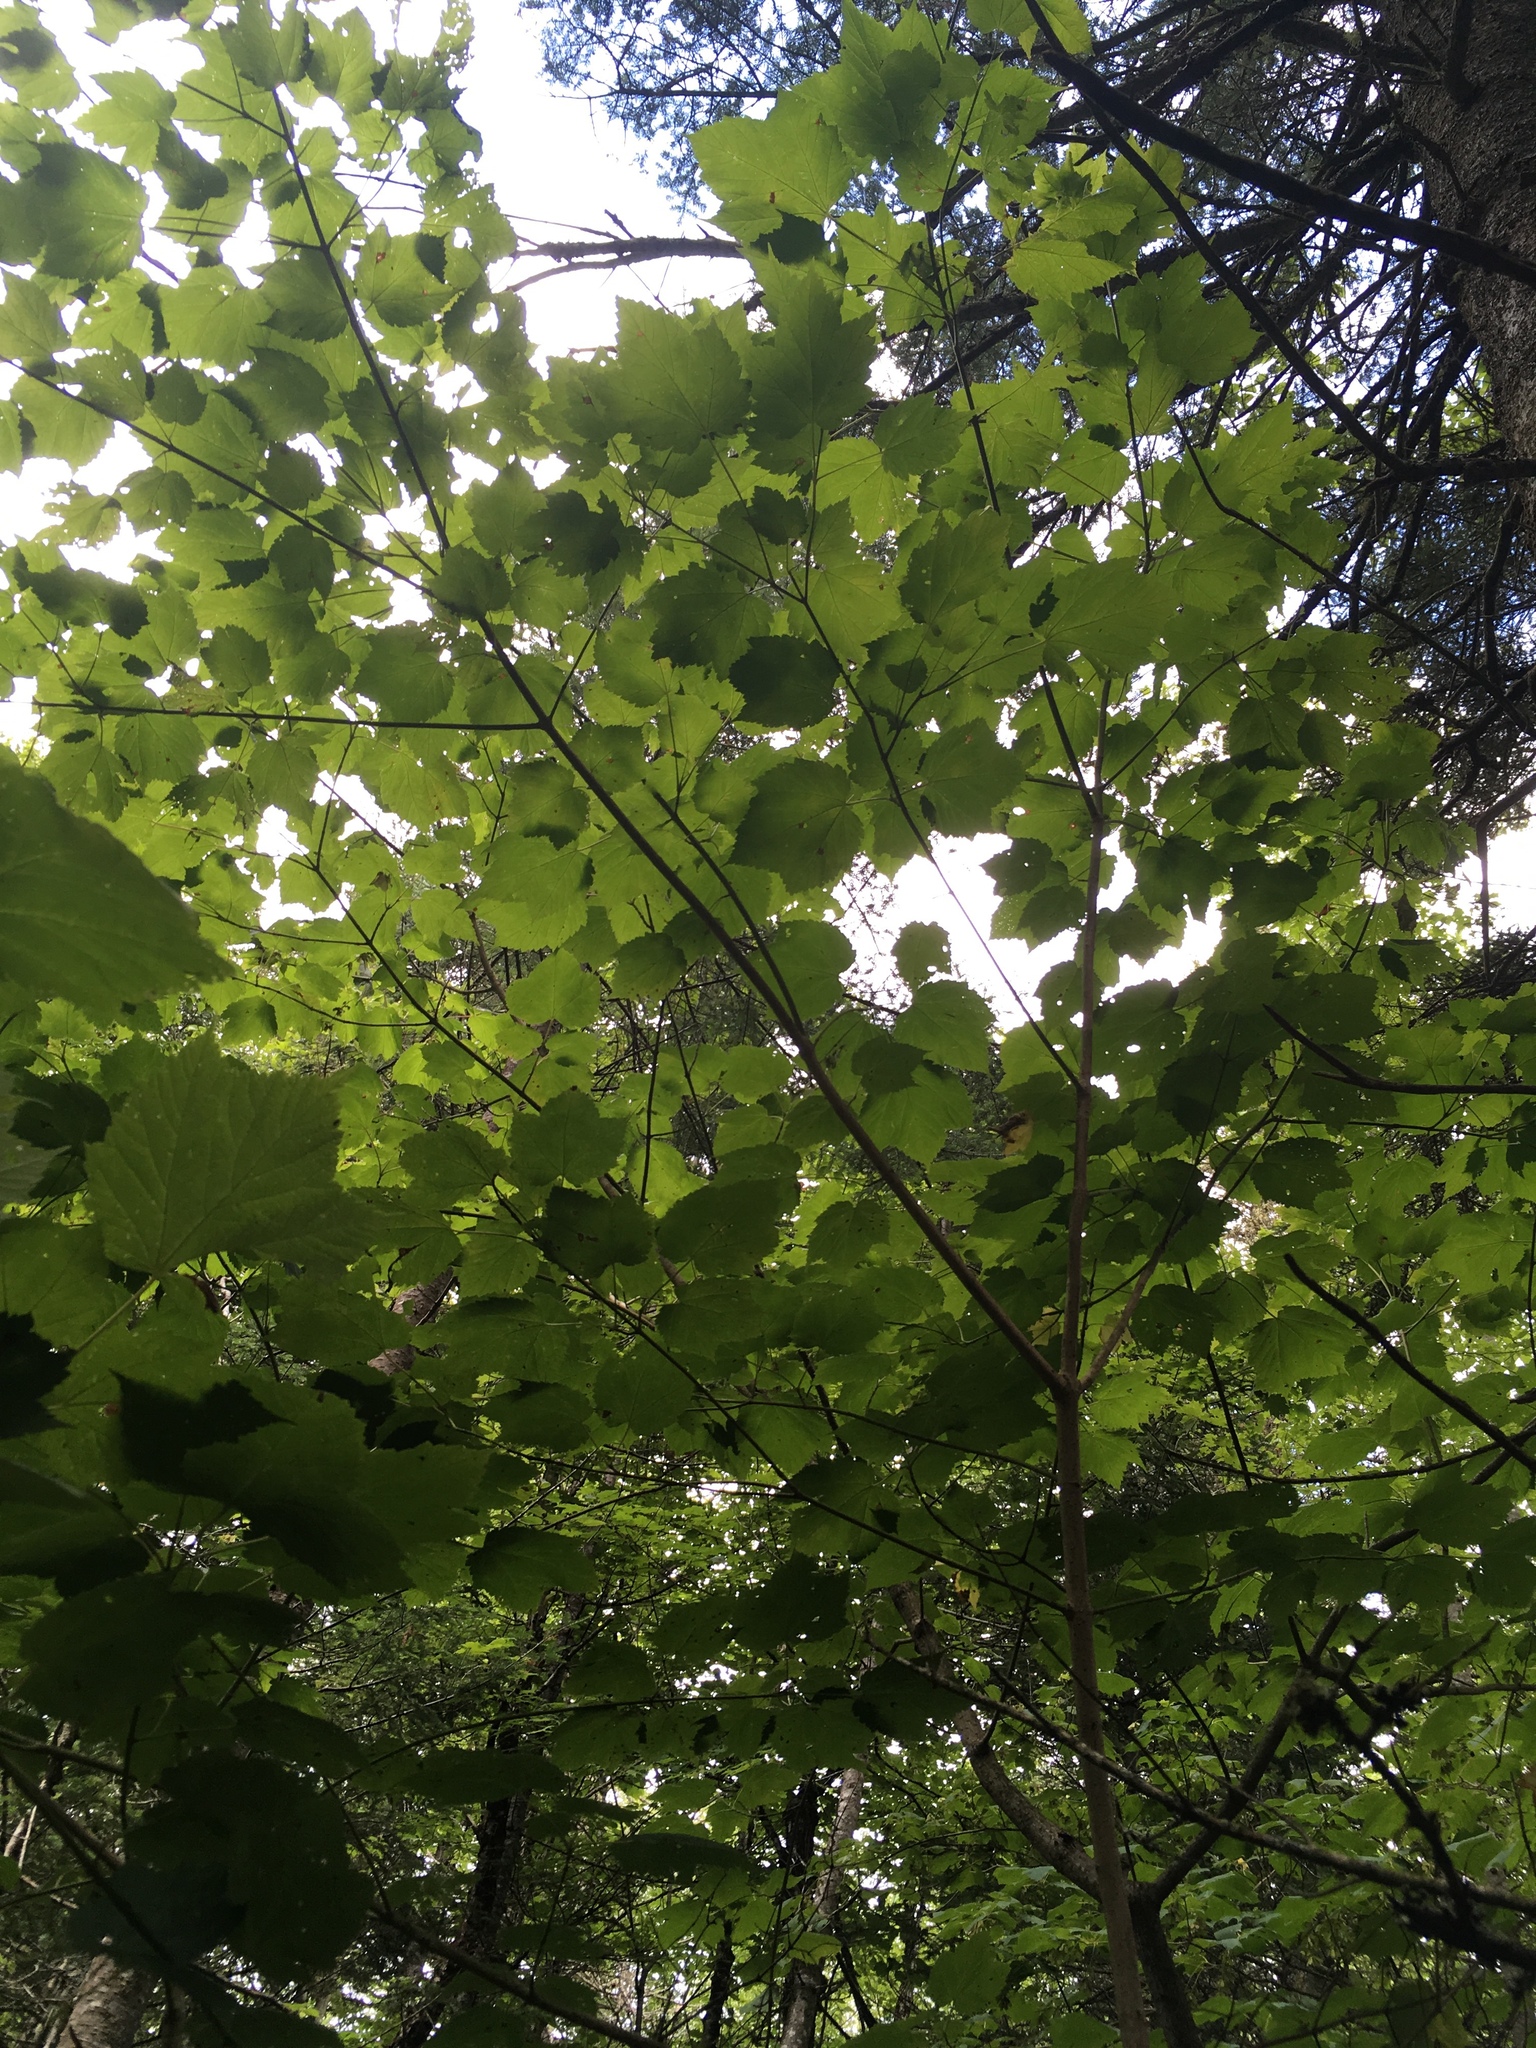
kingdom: Plantae
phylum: Tracheophyta
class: Magnoliopsida
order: Sapindales
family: Sapindaceae
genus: Acer
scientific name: Acer spicatum
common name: Mountain maple
